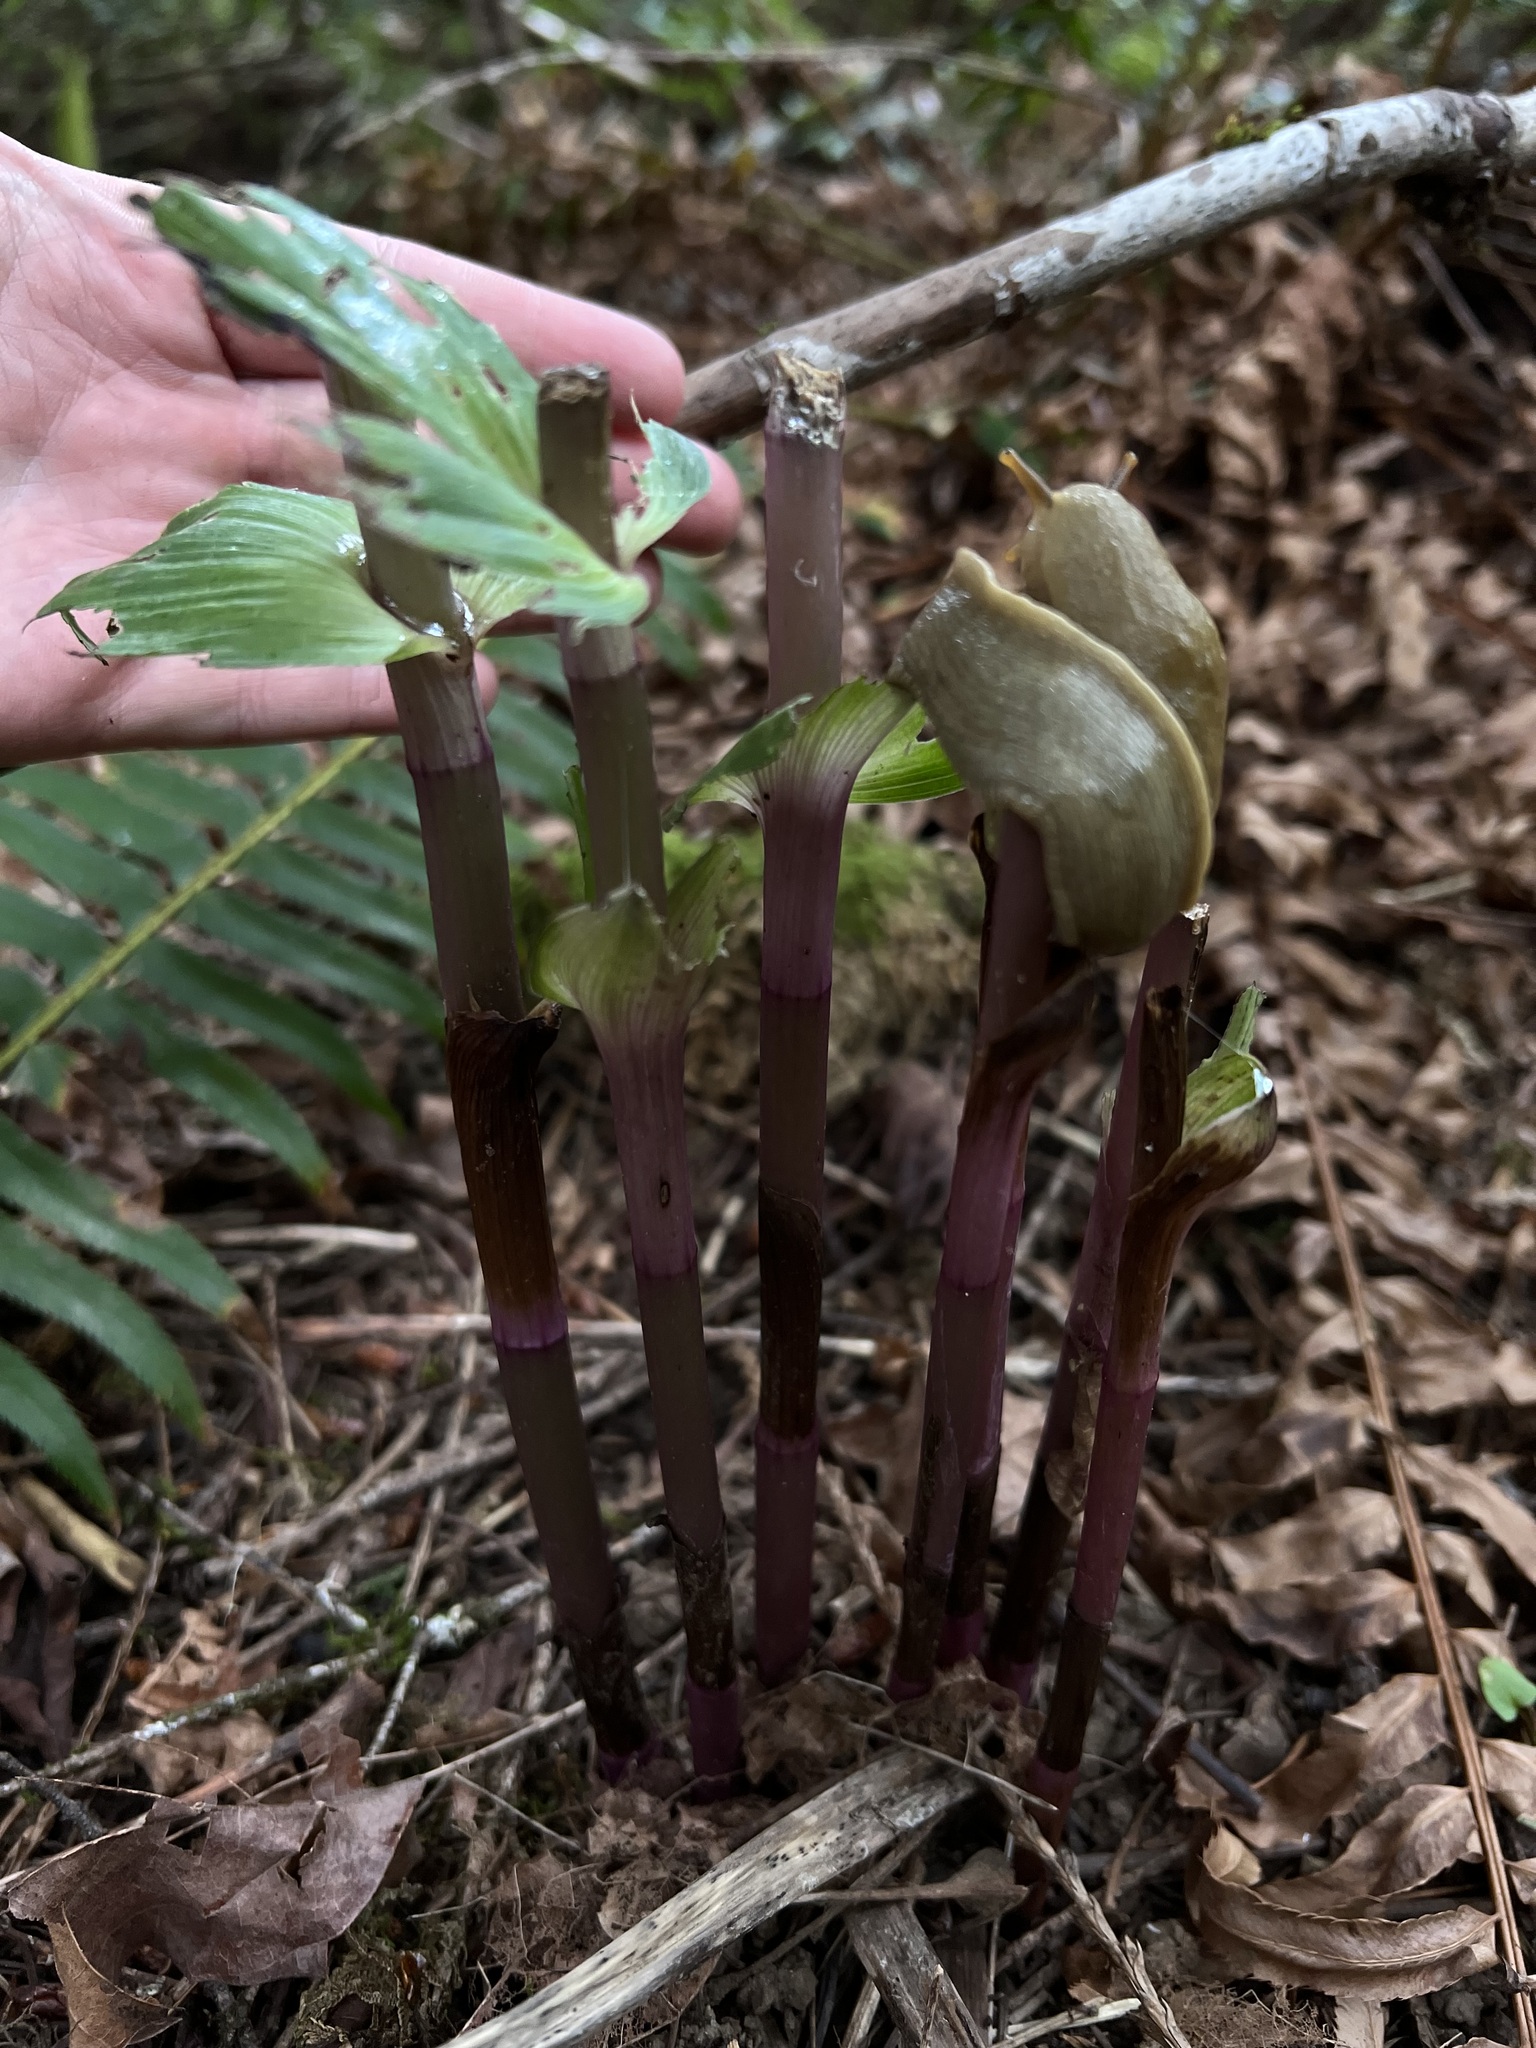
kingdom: Plantae
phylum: Tracheophyta
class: Liliopsida
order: Asparagales
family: Orchidaceae
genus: Epipactis
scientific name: Epipactis helleborine
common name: Broad-leaved helleborine
